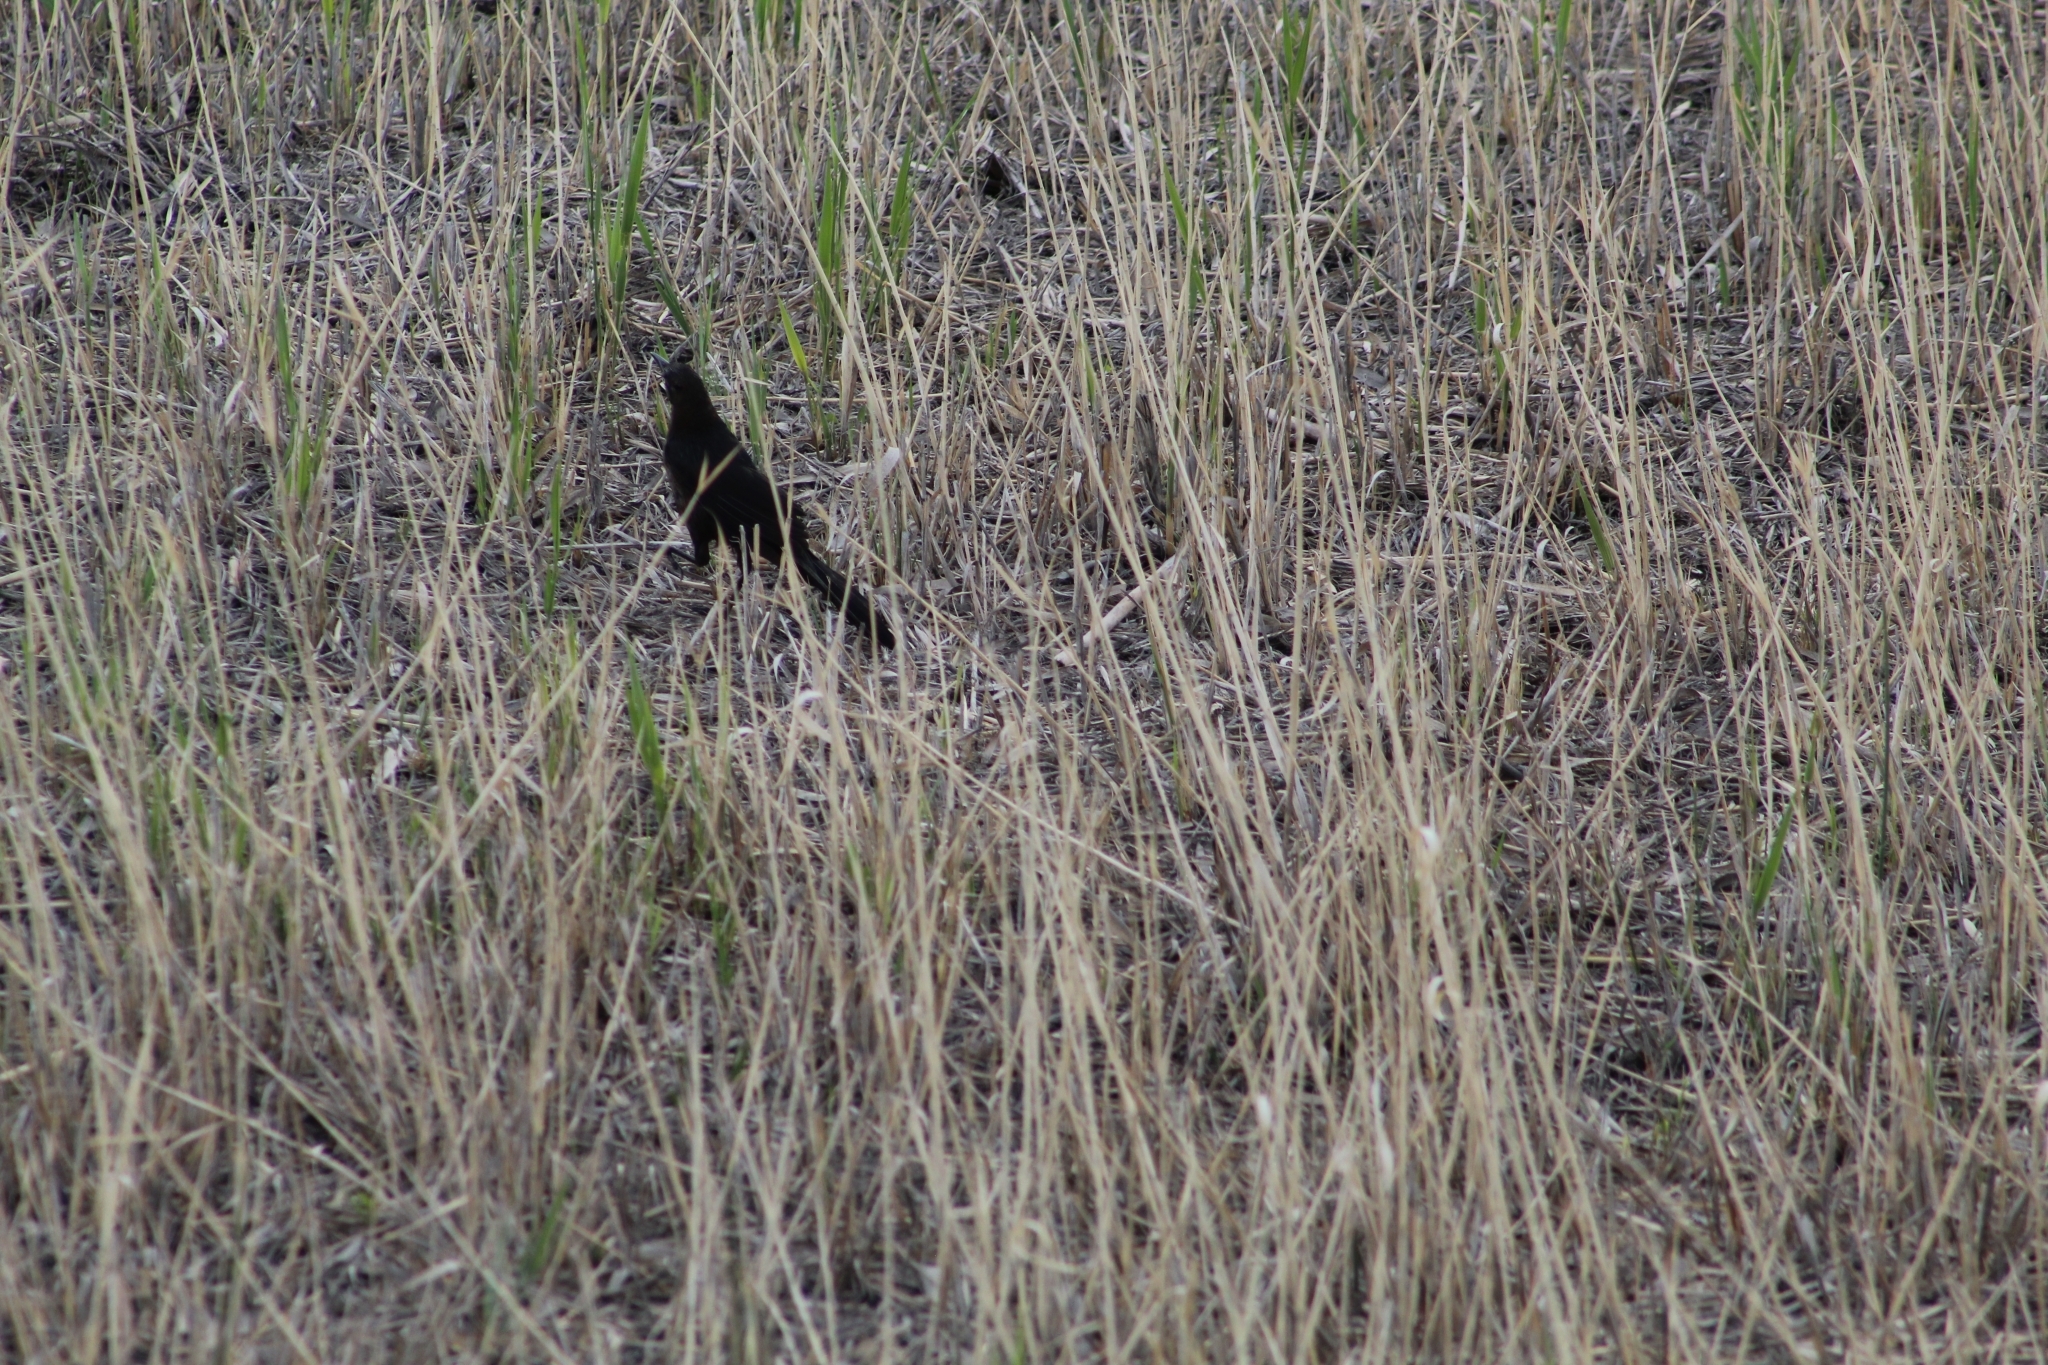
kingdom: Animalia
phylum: Chordata
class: Aves
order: Passeriformes
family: Icteridae
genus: Quiscalus
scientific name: Quiscalus mexicanus
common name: Great-tailed grackle
